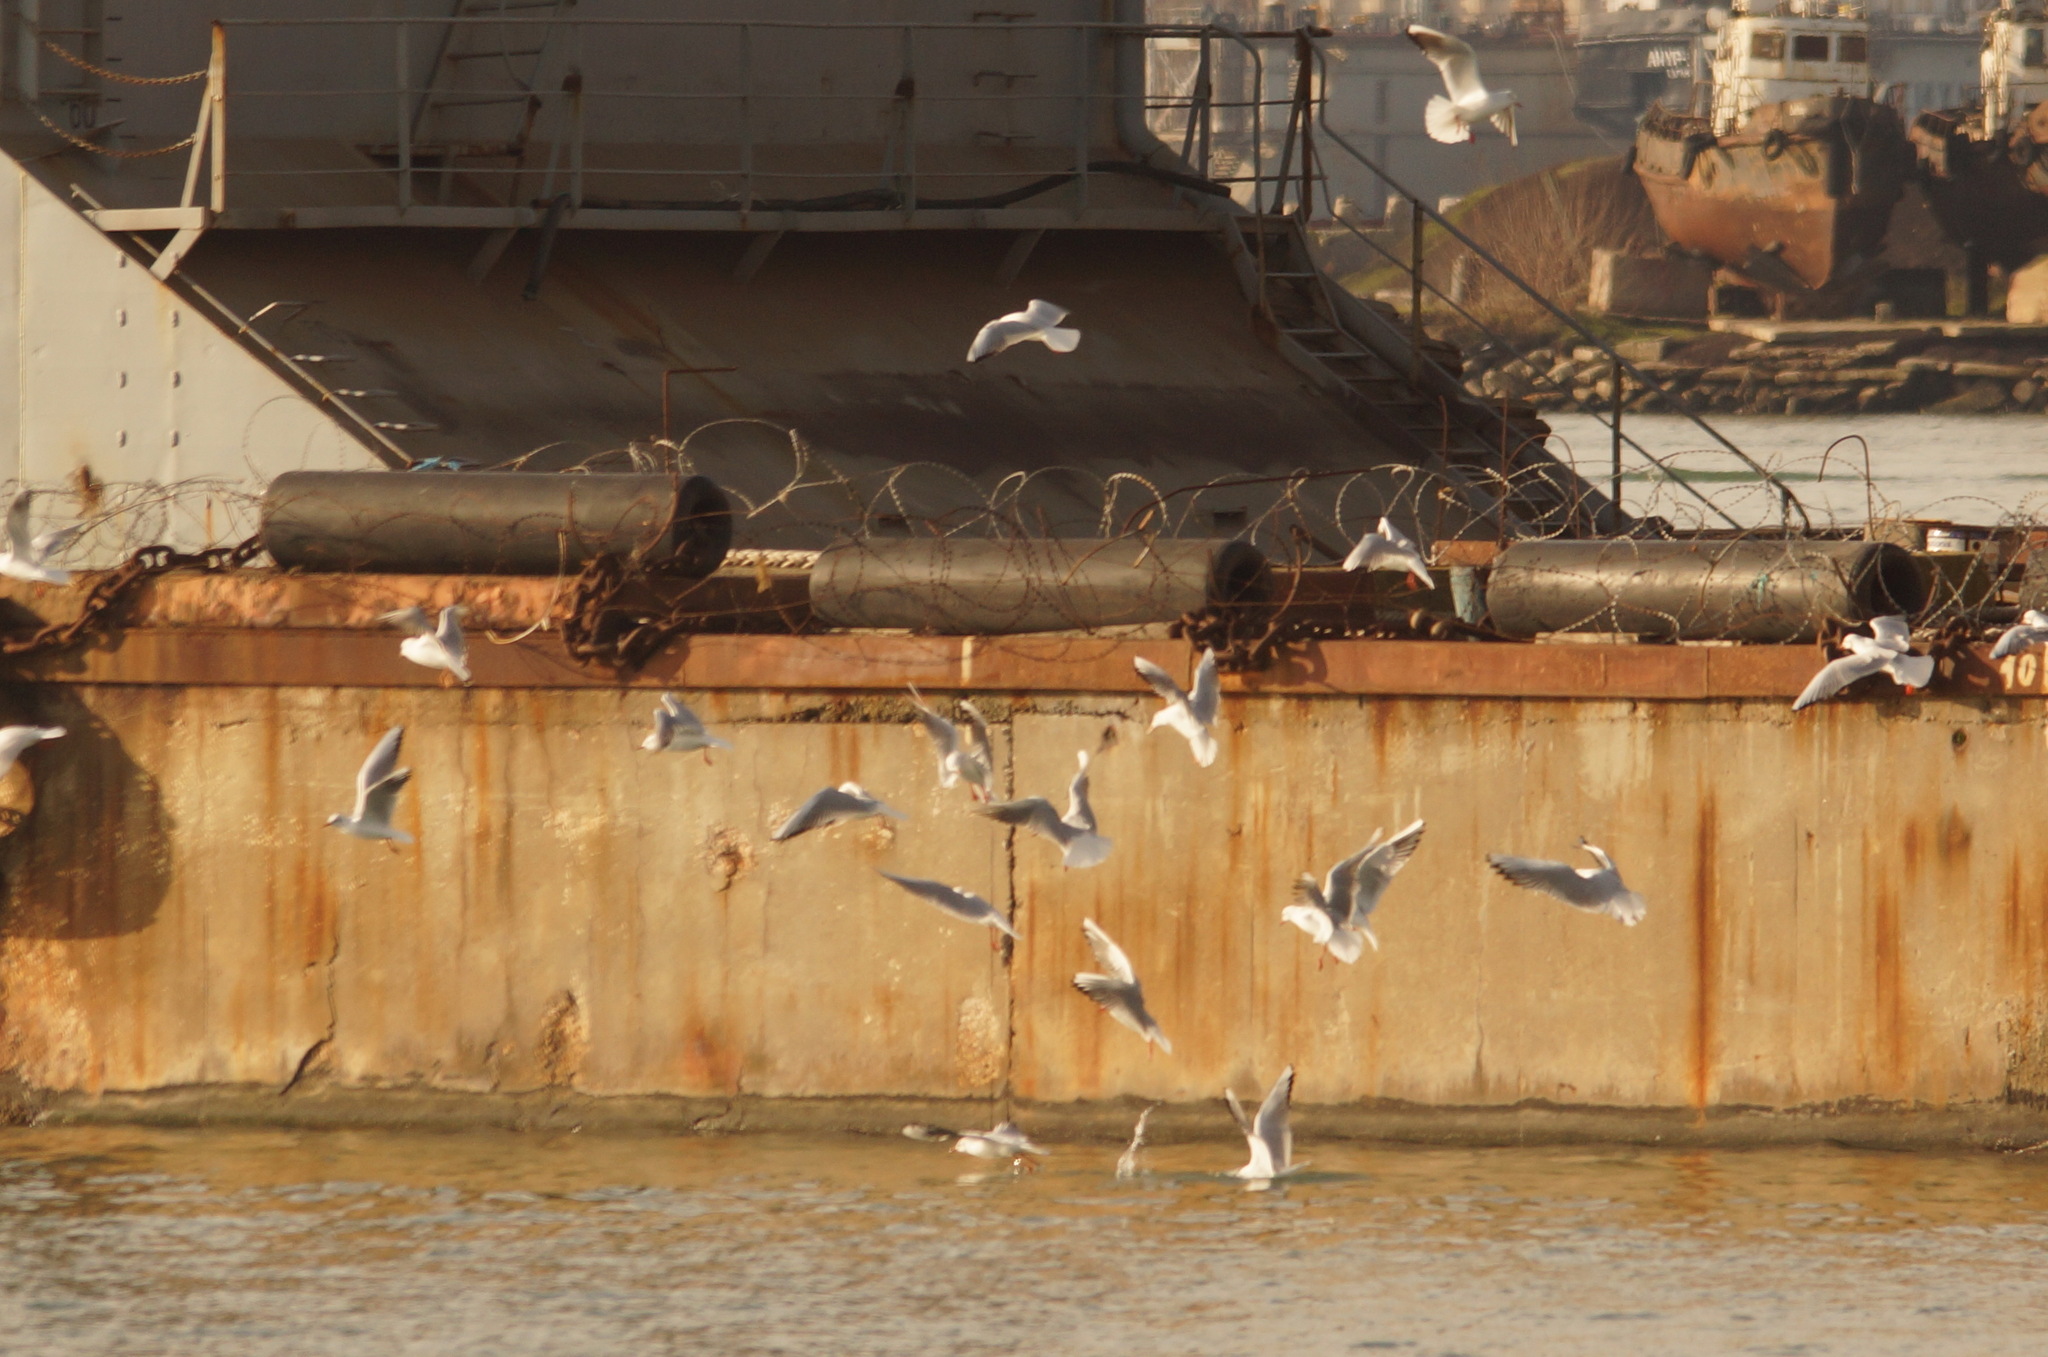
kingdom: Animalia
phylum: Chordata
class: Aves
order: Charadriiformes
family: Laridae
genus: Chroicocephalus
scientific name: Chroicocephalus ridibundus
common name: Black-headed gull
